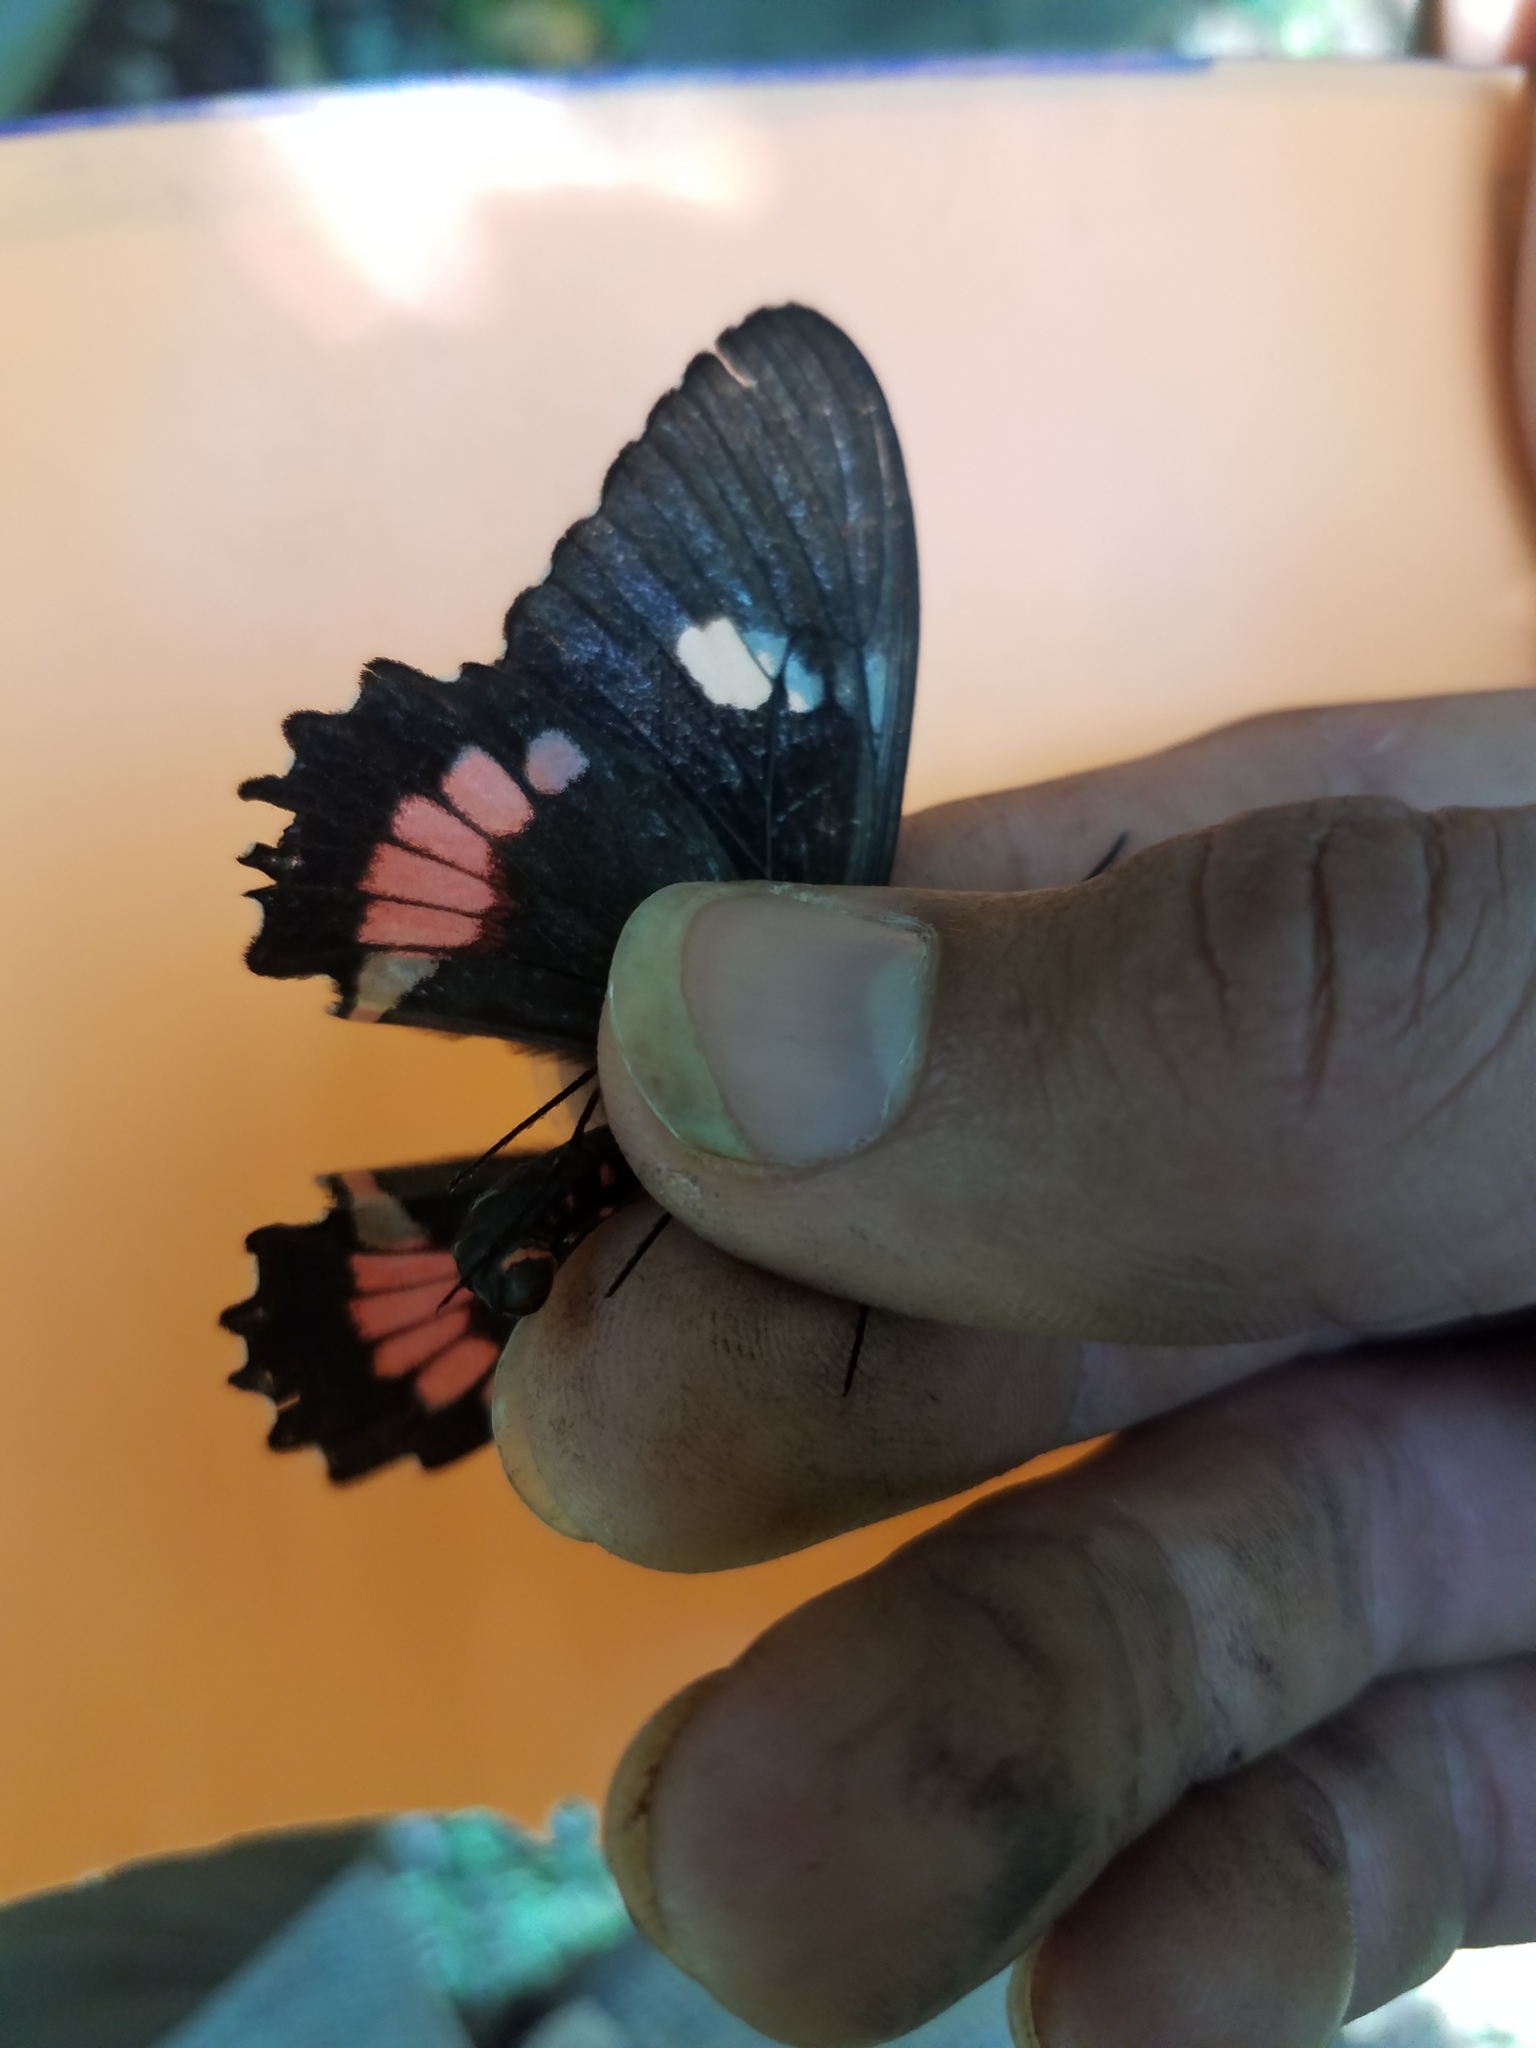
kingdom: Animalia
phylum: Arthropoda
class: Insecta
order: Lepidoptera
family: Papilionidae
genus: Parides
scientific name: Parides iphidamas
